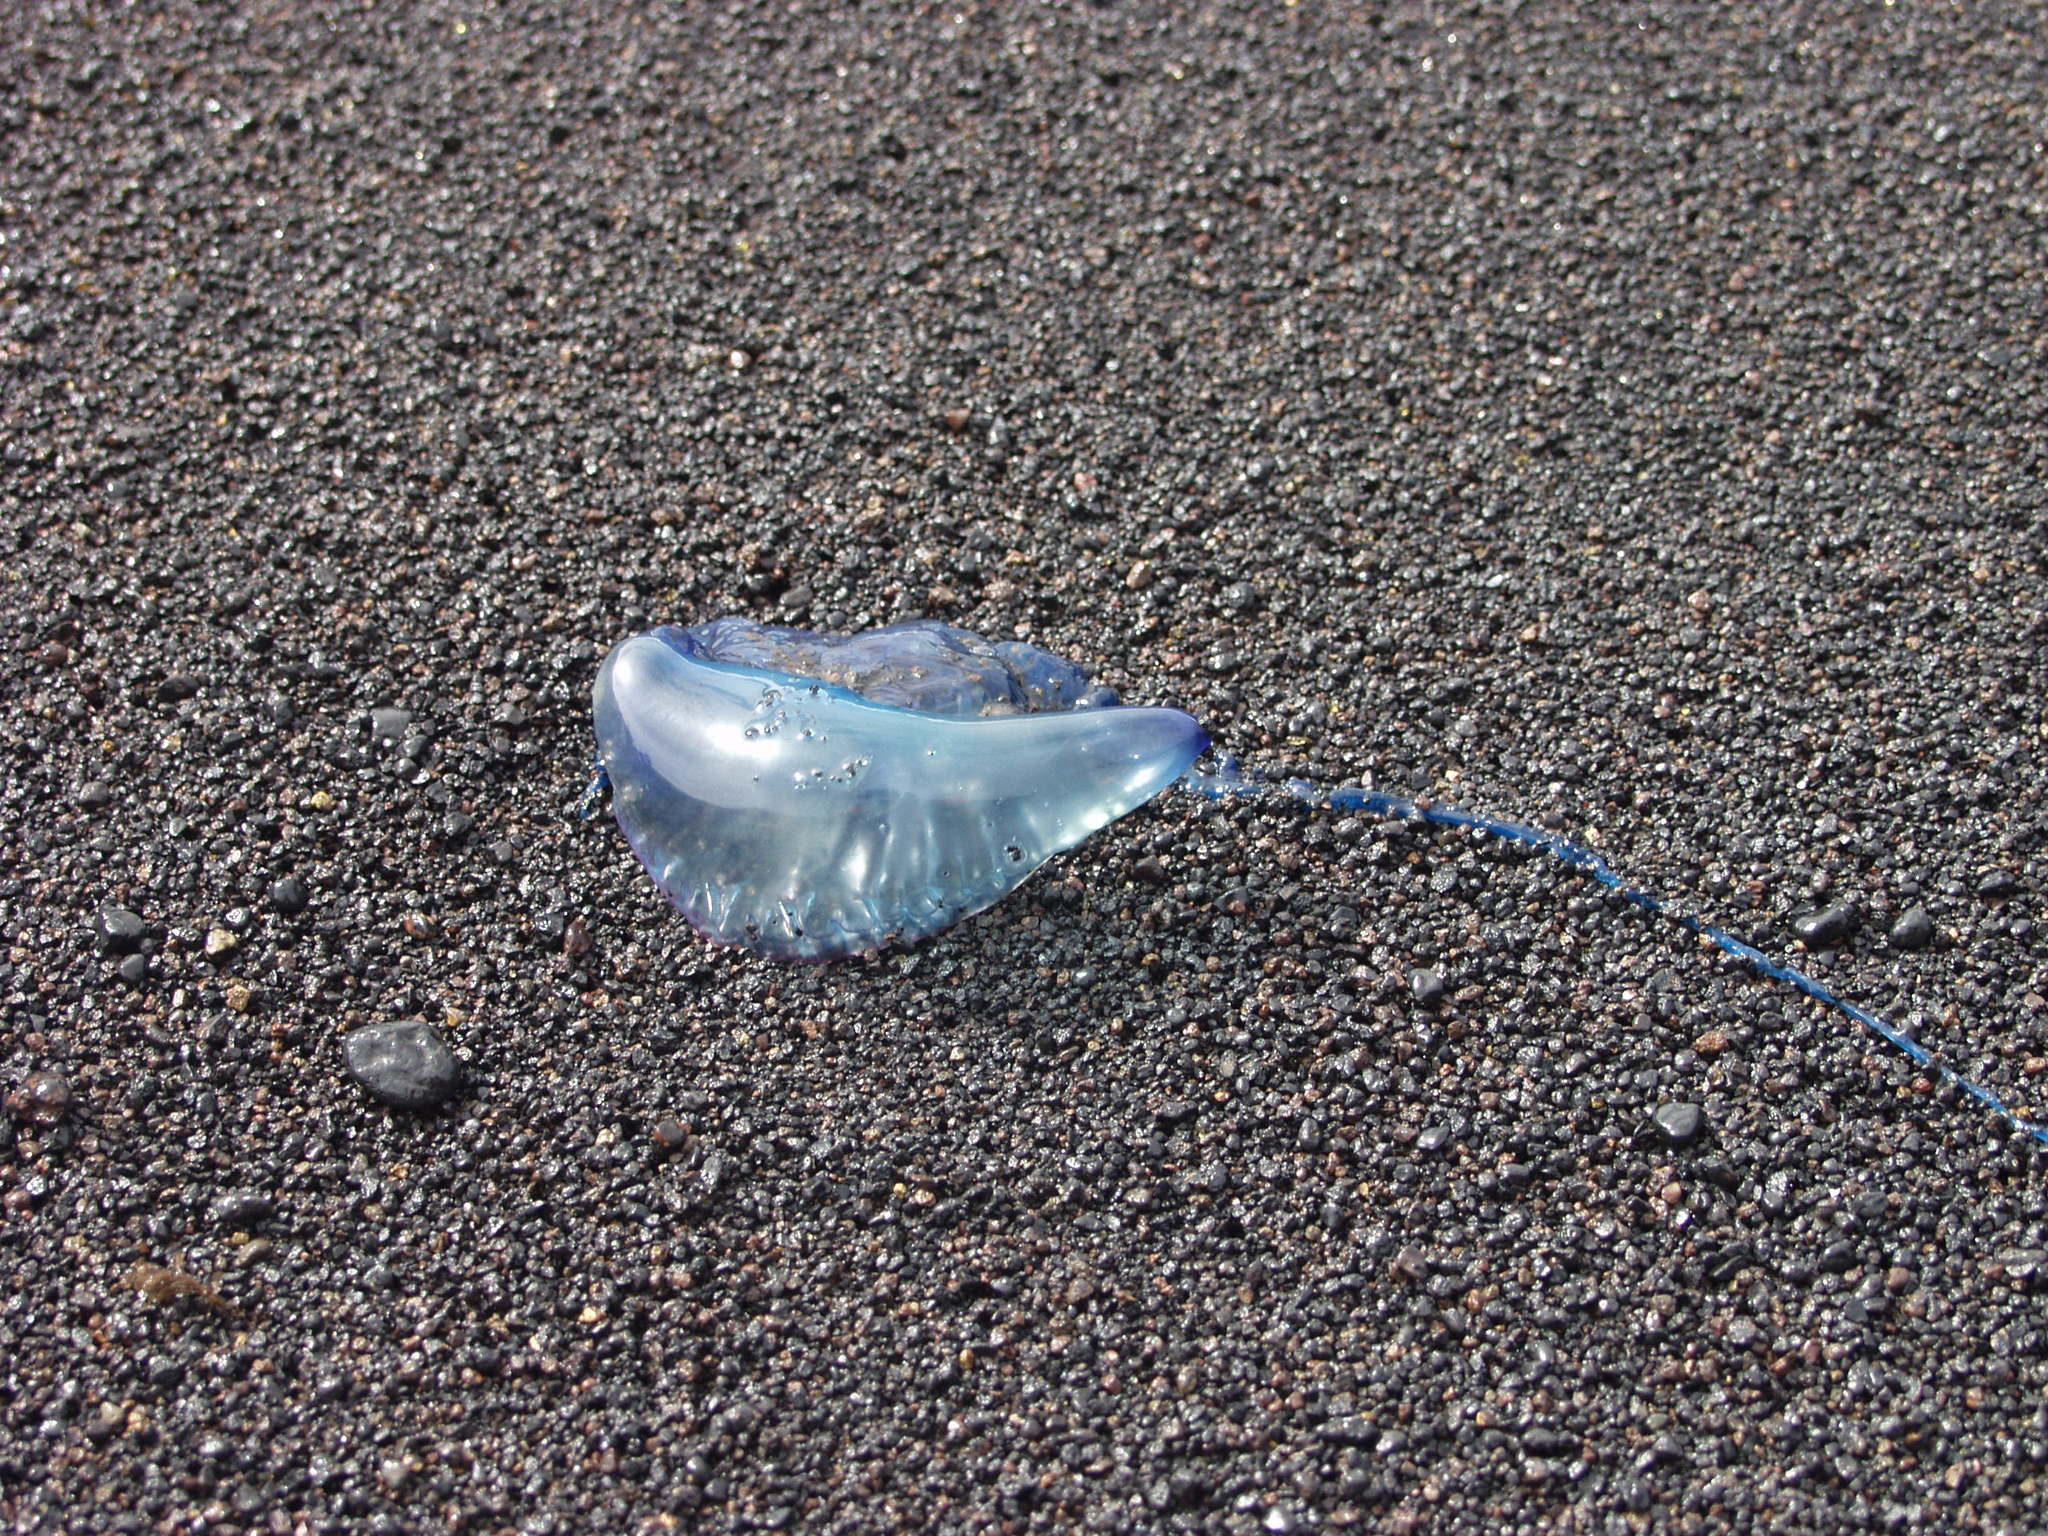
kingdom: Animalia
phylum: Cnidaria
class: Hydrozoa
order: Siphonophorae
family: Physaliidae
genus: Physalia
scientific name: Physalia physalis
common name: Portuguese man-of-war
